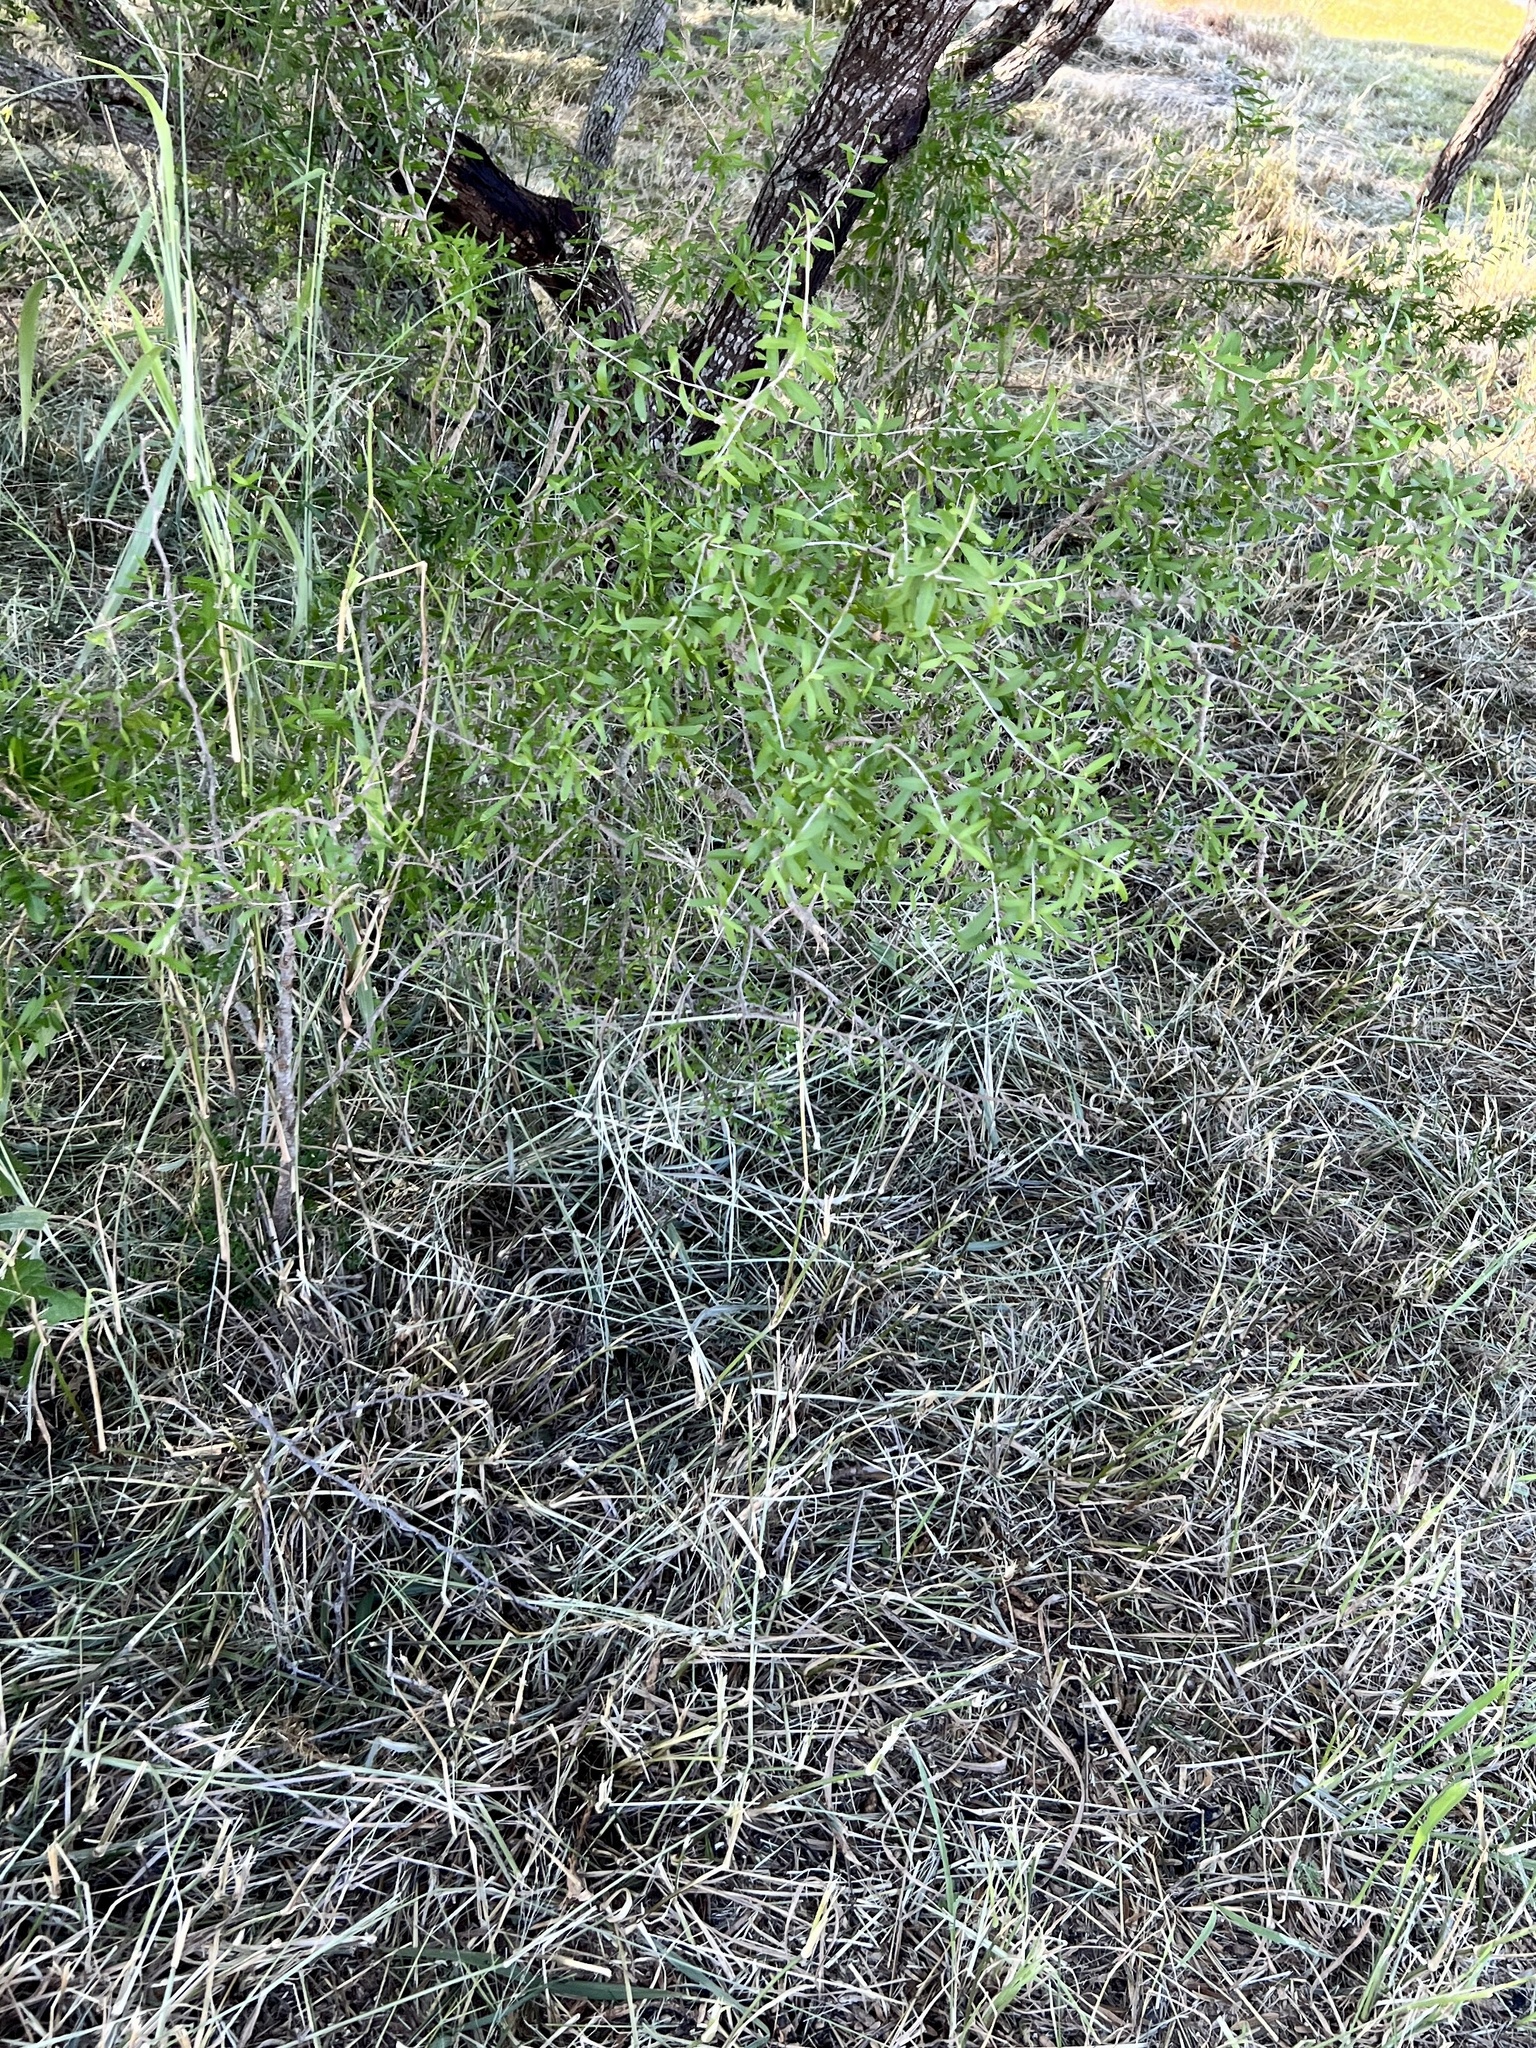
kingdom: Plantae
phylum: Tracheophyta
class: Magnoliopsida
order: Lamiales
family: Oleaceae
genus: Forestiera
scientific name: Forestiera angustifolia
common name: Elbowbush
